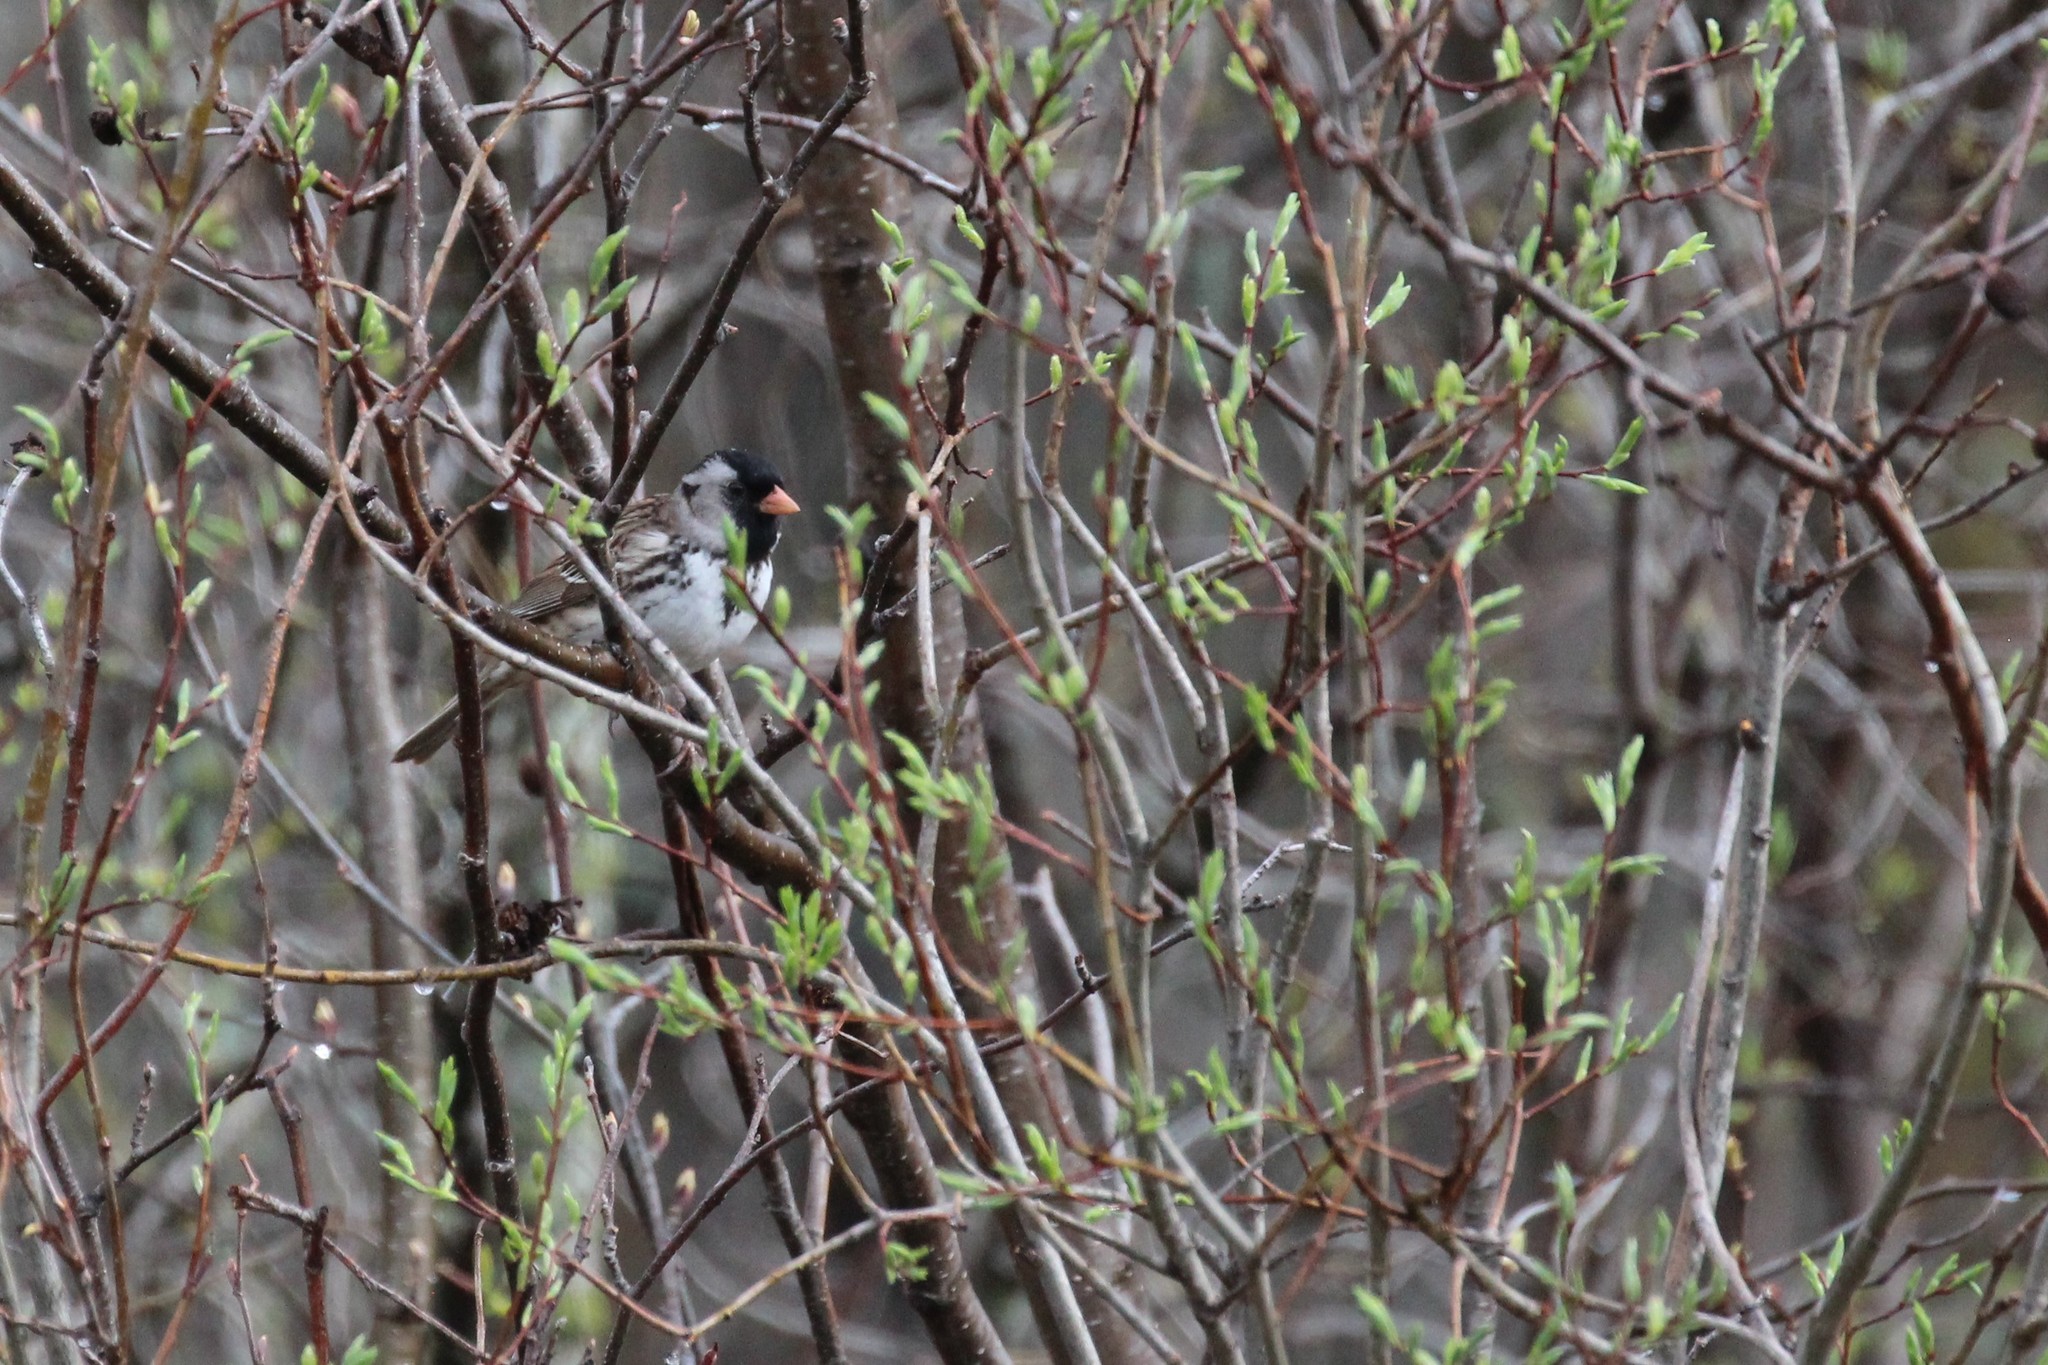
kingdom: Animalia
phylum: Chordata
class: Aves
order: Passeriformes
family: Passerellidae
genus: Zonotrichia
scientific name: Zonotrichia querula
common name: Harris's sparrow
